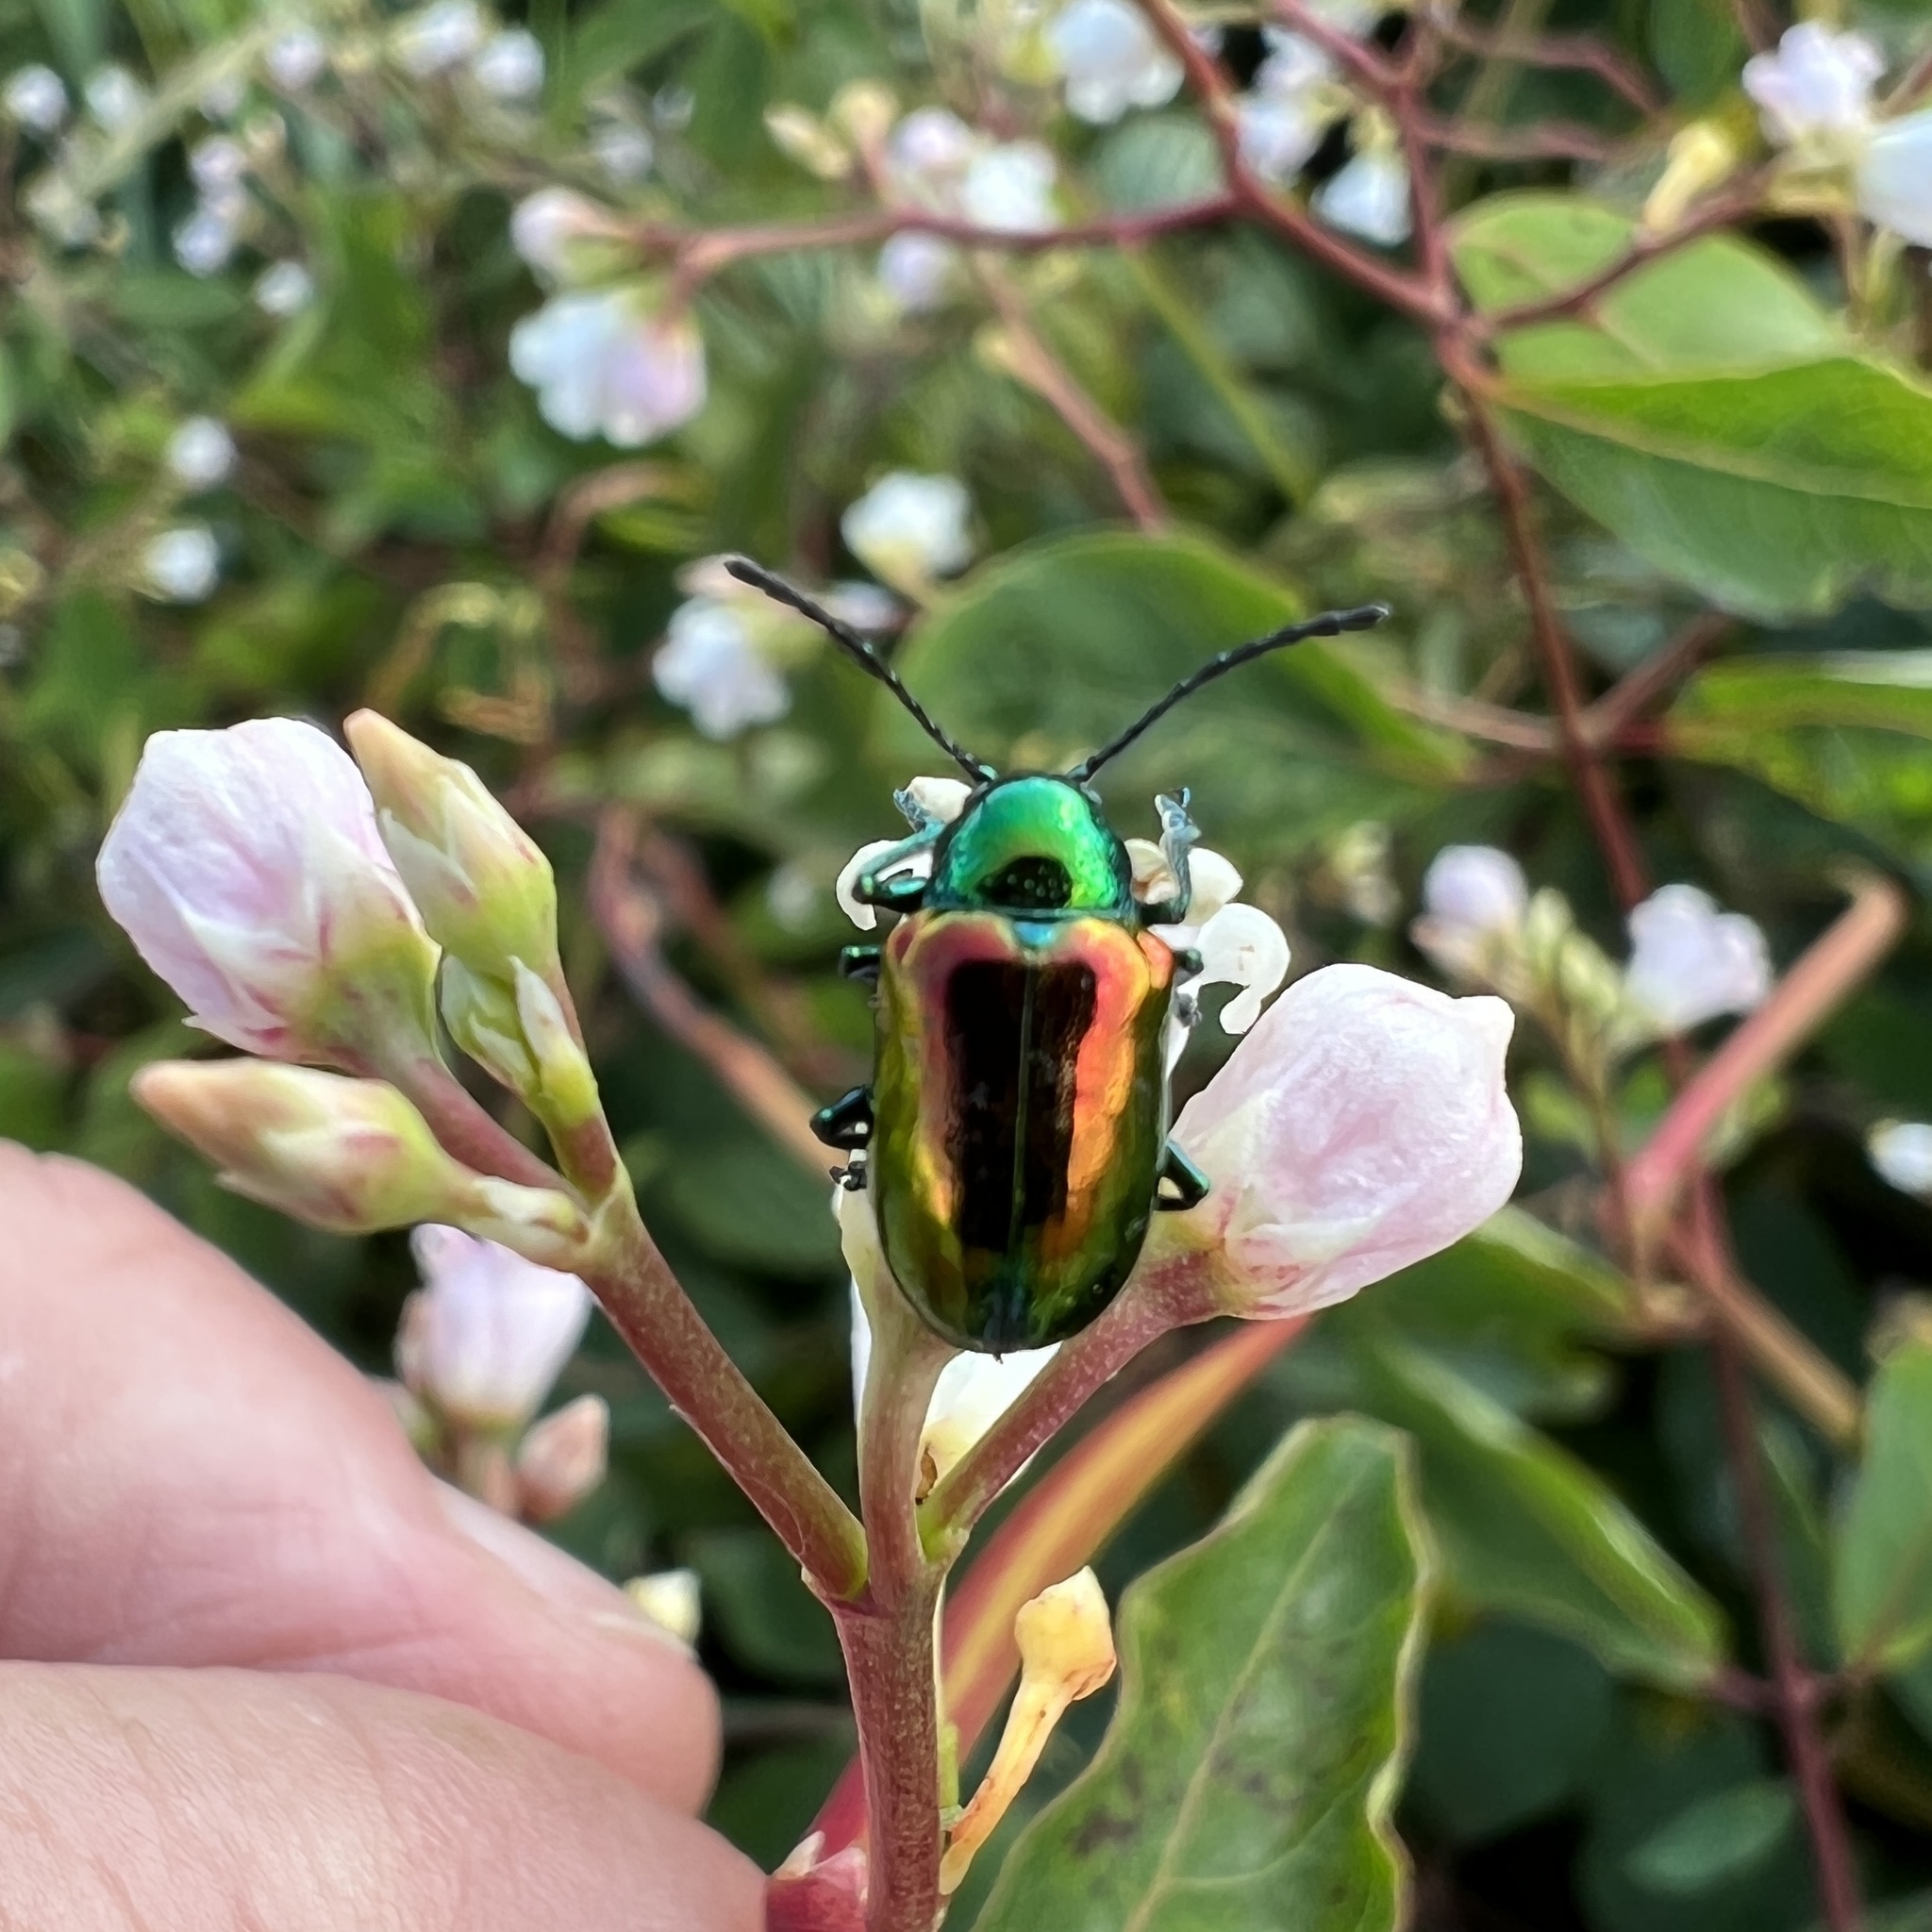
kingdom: Animalia
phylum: Arthropoda
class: Insecta
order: Coleoptera
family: Chrysomelidae
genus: Chrysochus
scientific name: Chrysochus auratus
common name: Dogbane leaf beetle
